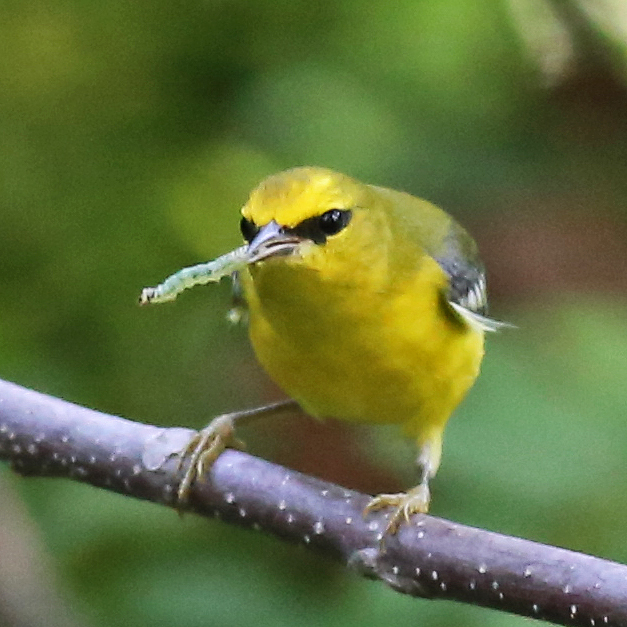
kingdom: Animalia
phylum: Chordata
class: Aves
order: Passeriformes
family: Parulidae
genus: Vermivora
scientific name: Vermivora cyanoptera
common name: Blue-winged warbler
